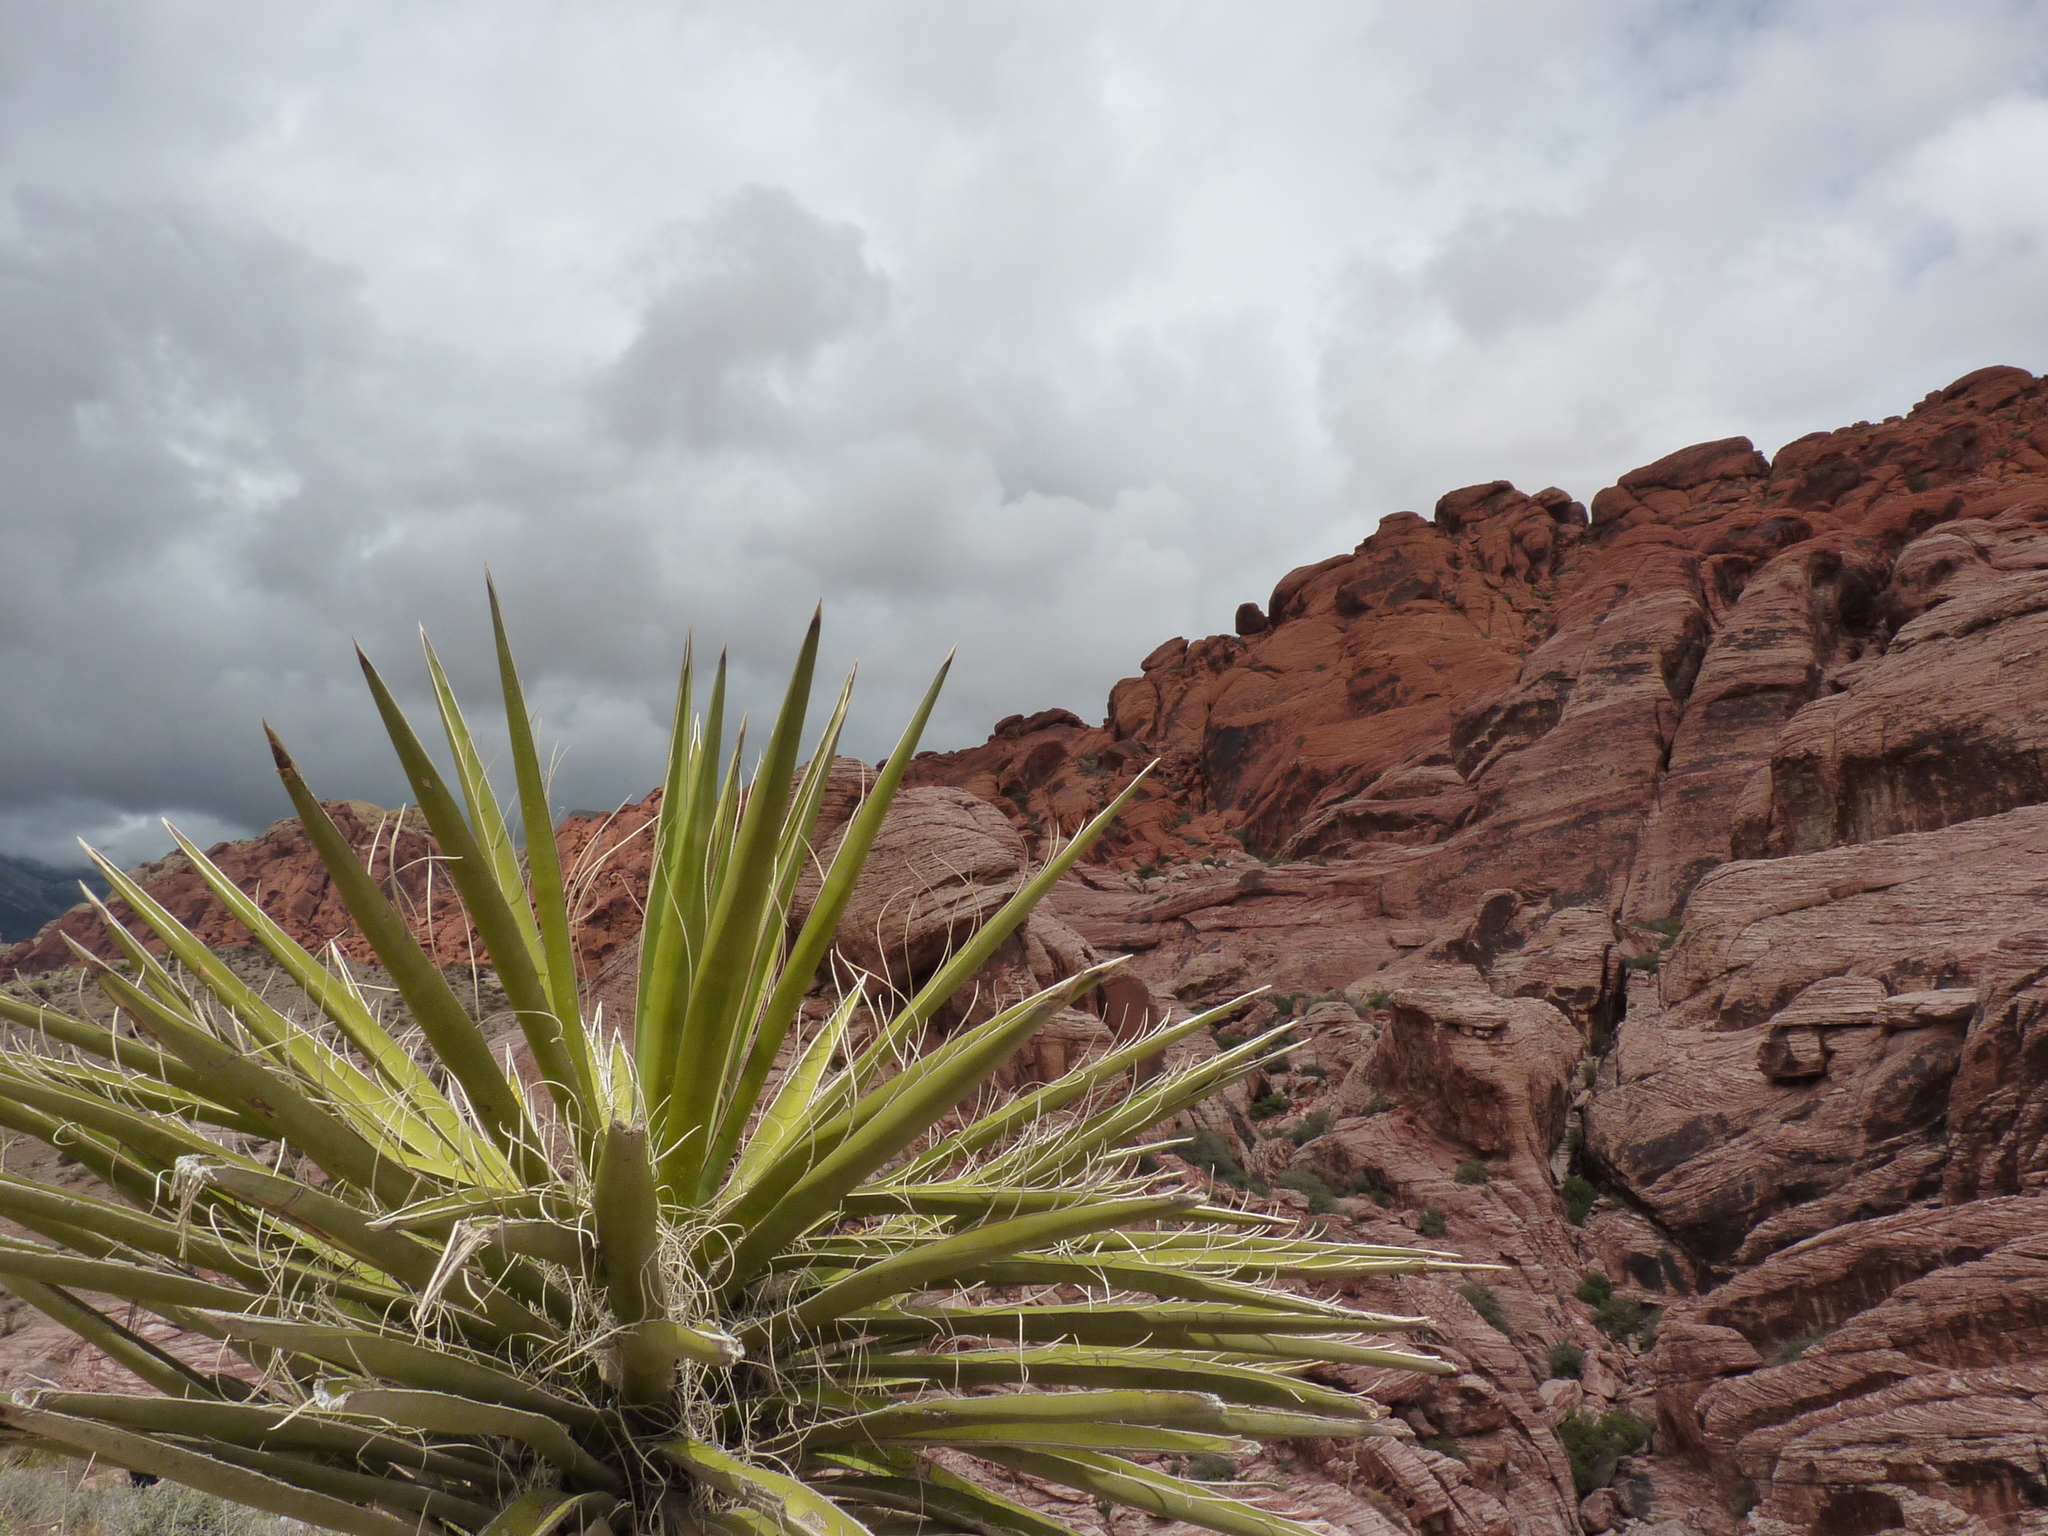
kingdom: Plantae
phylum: Tracheophyta
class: Liliopsida
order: Asparagales
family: Asparagaceae
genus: Yucca
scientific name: Yucca schidigera
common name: Mojave yucca
